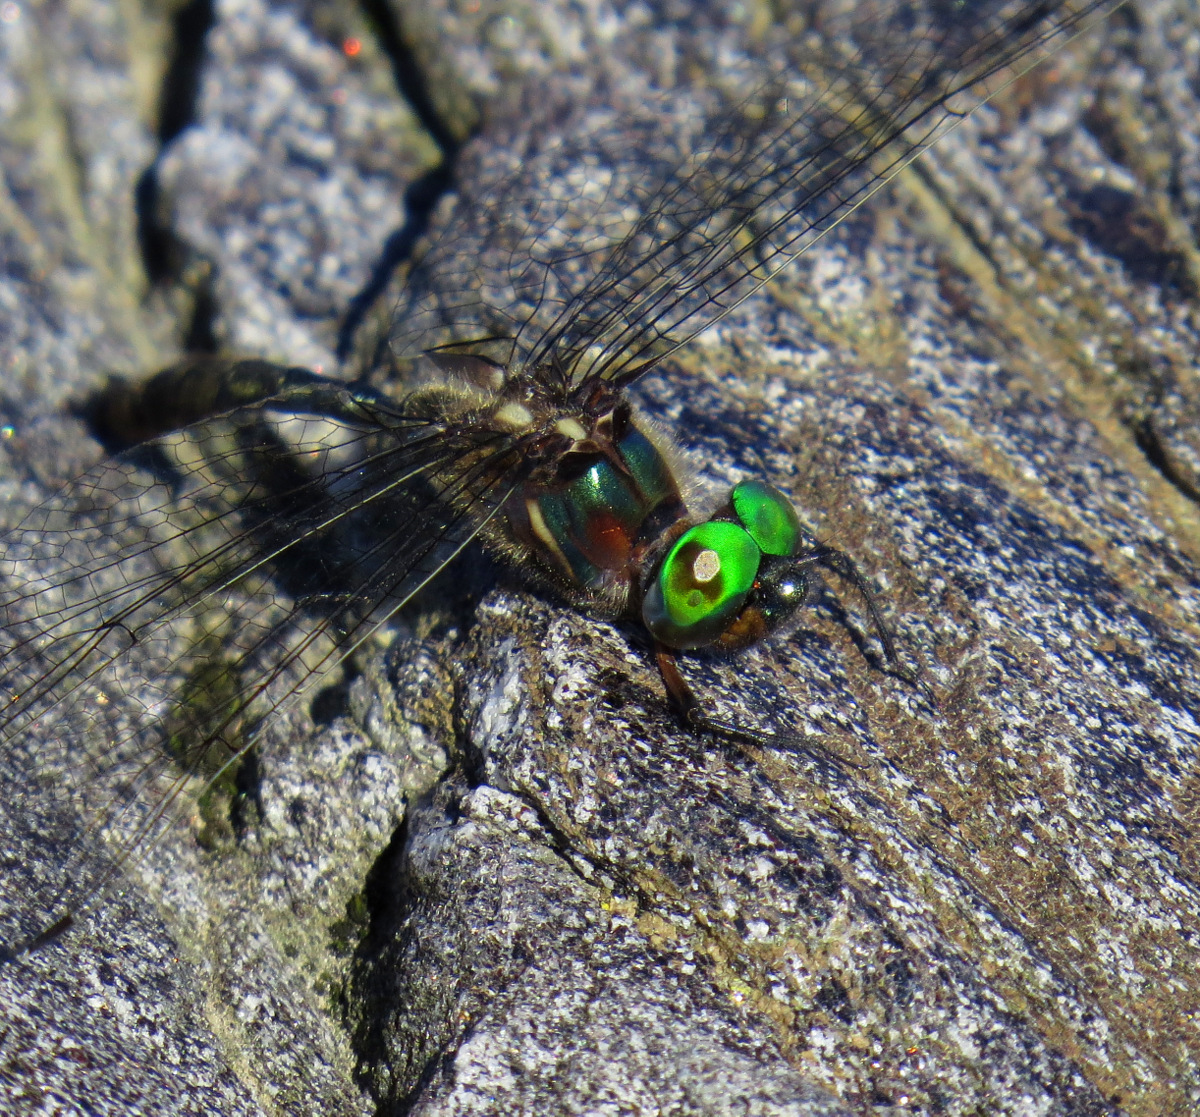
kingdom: Animalia
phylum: Arthropoda
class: Insecta
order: Odonata
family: Corduliidae
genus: Somatochlora
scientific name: Somatochlora tenebrosa
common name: Clamp-tipped emerald
